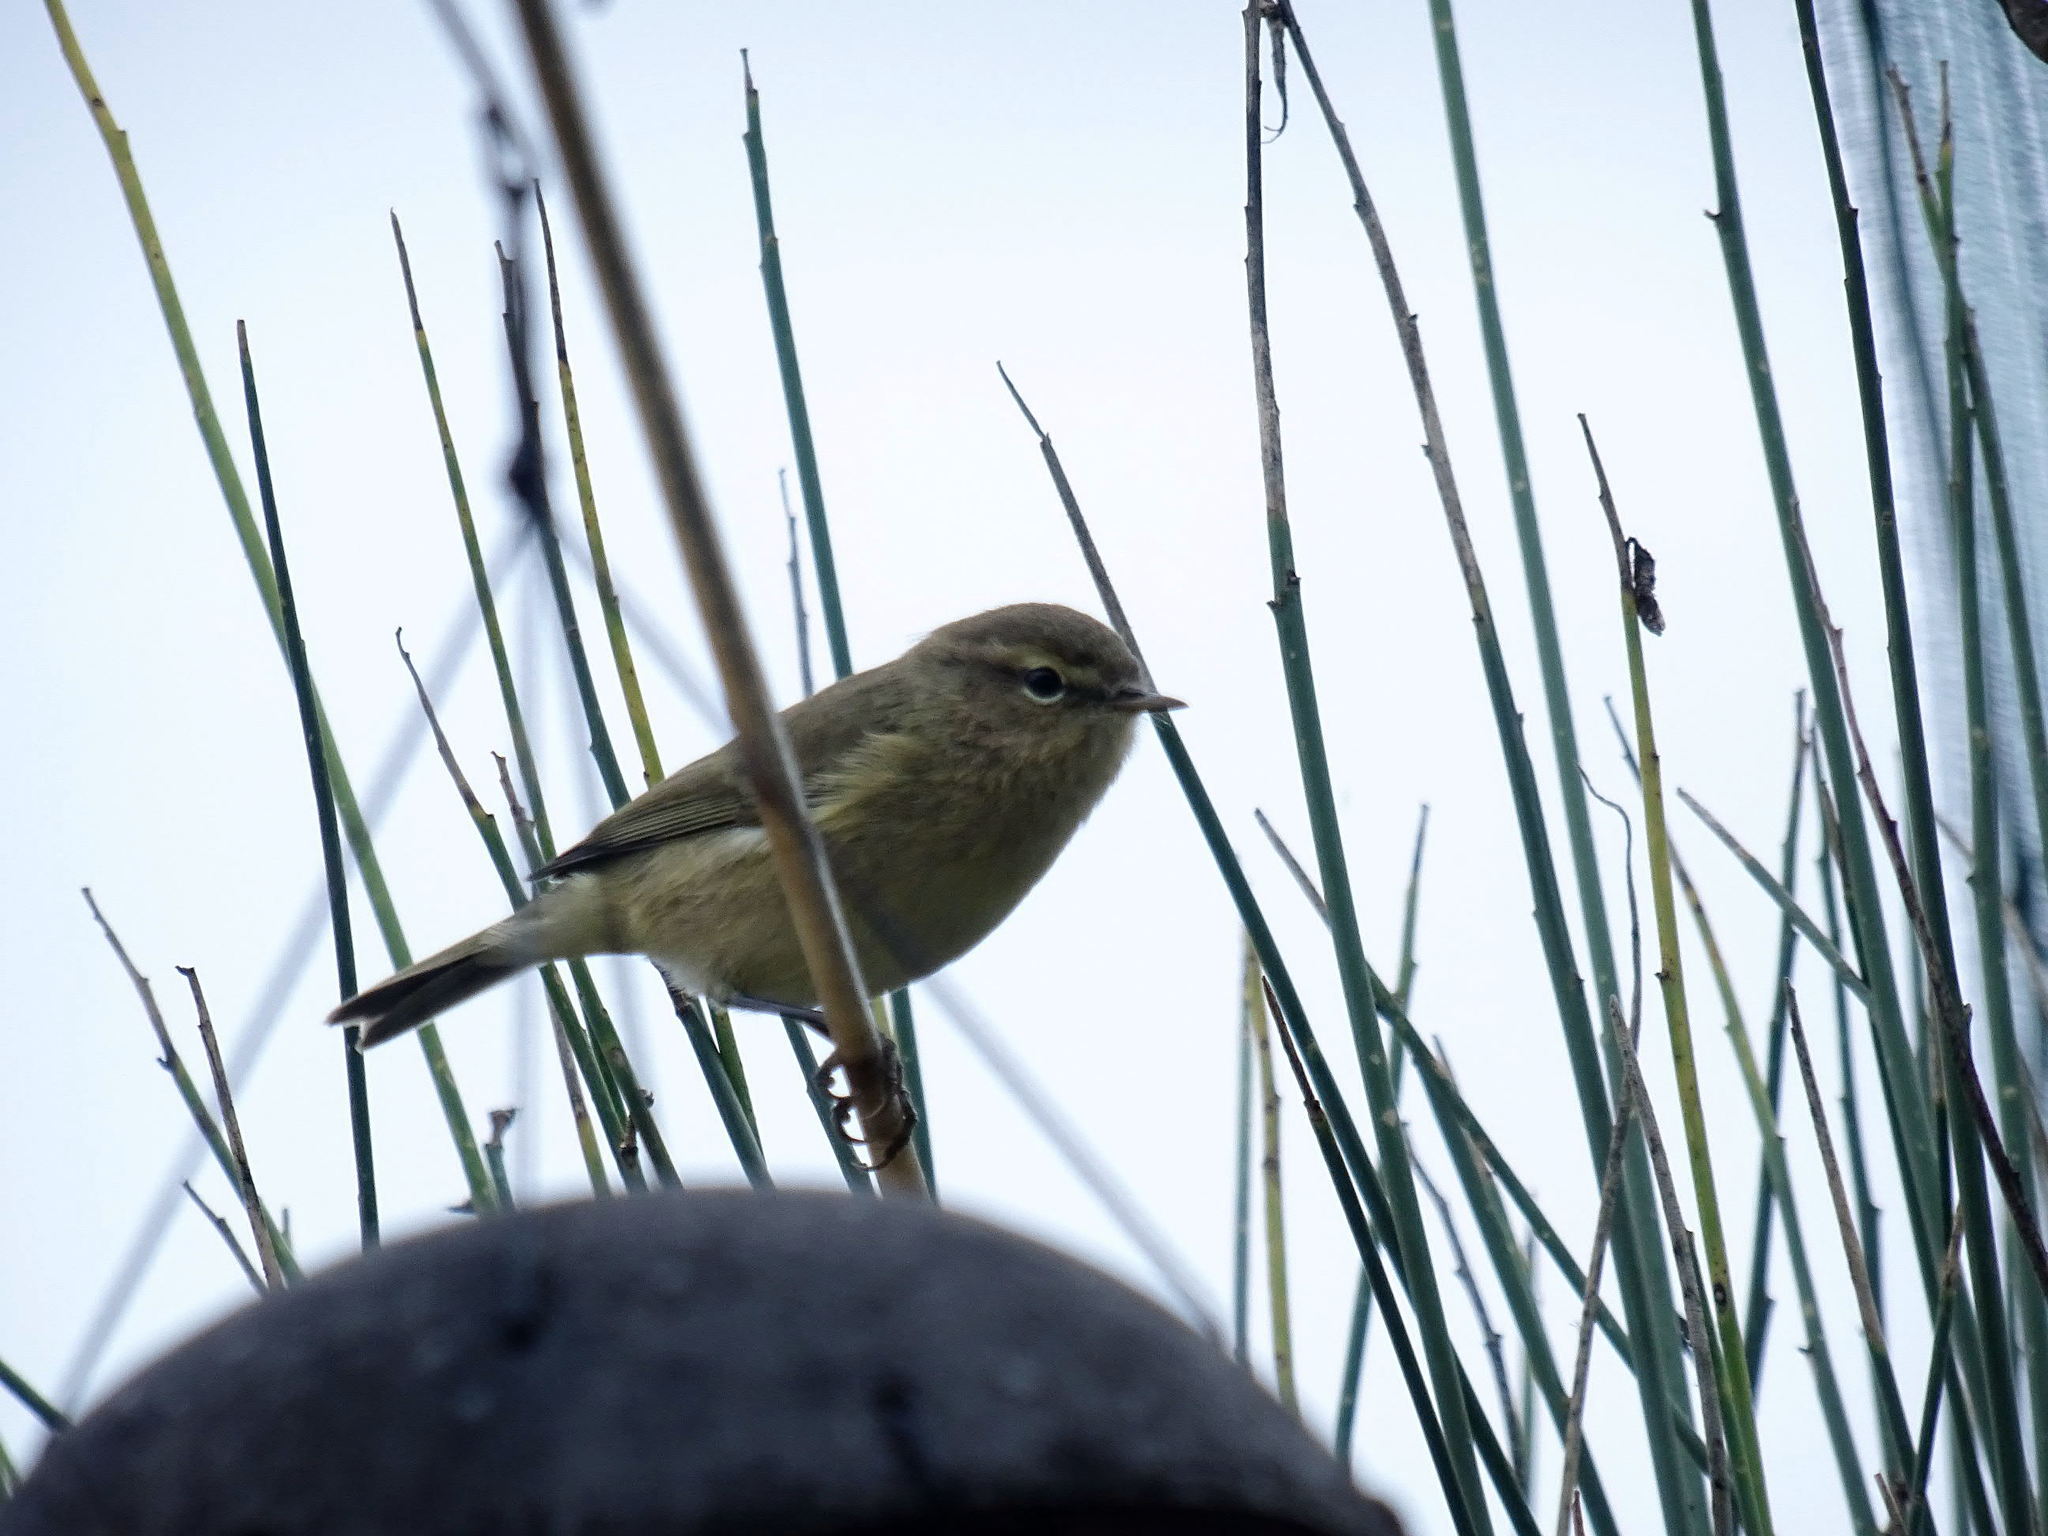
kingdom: Animalia
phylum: Chordata
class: Aves
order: Passeriformes
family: Phylloscopidae
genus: Phylloscopus
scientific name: Phylloscopus collybita
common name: Common chiffchaff
